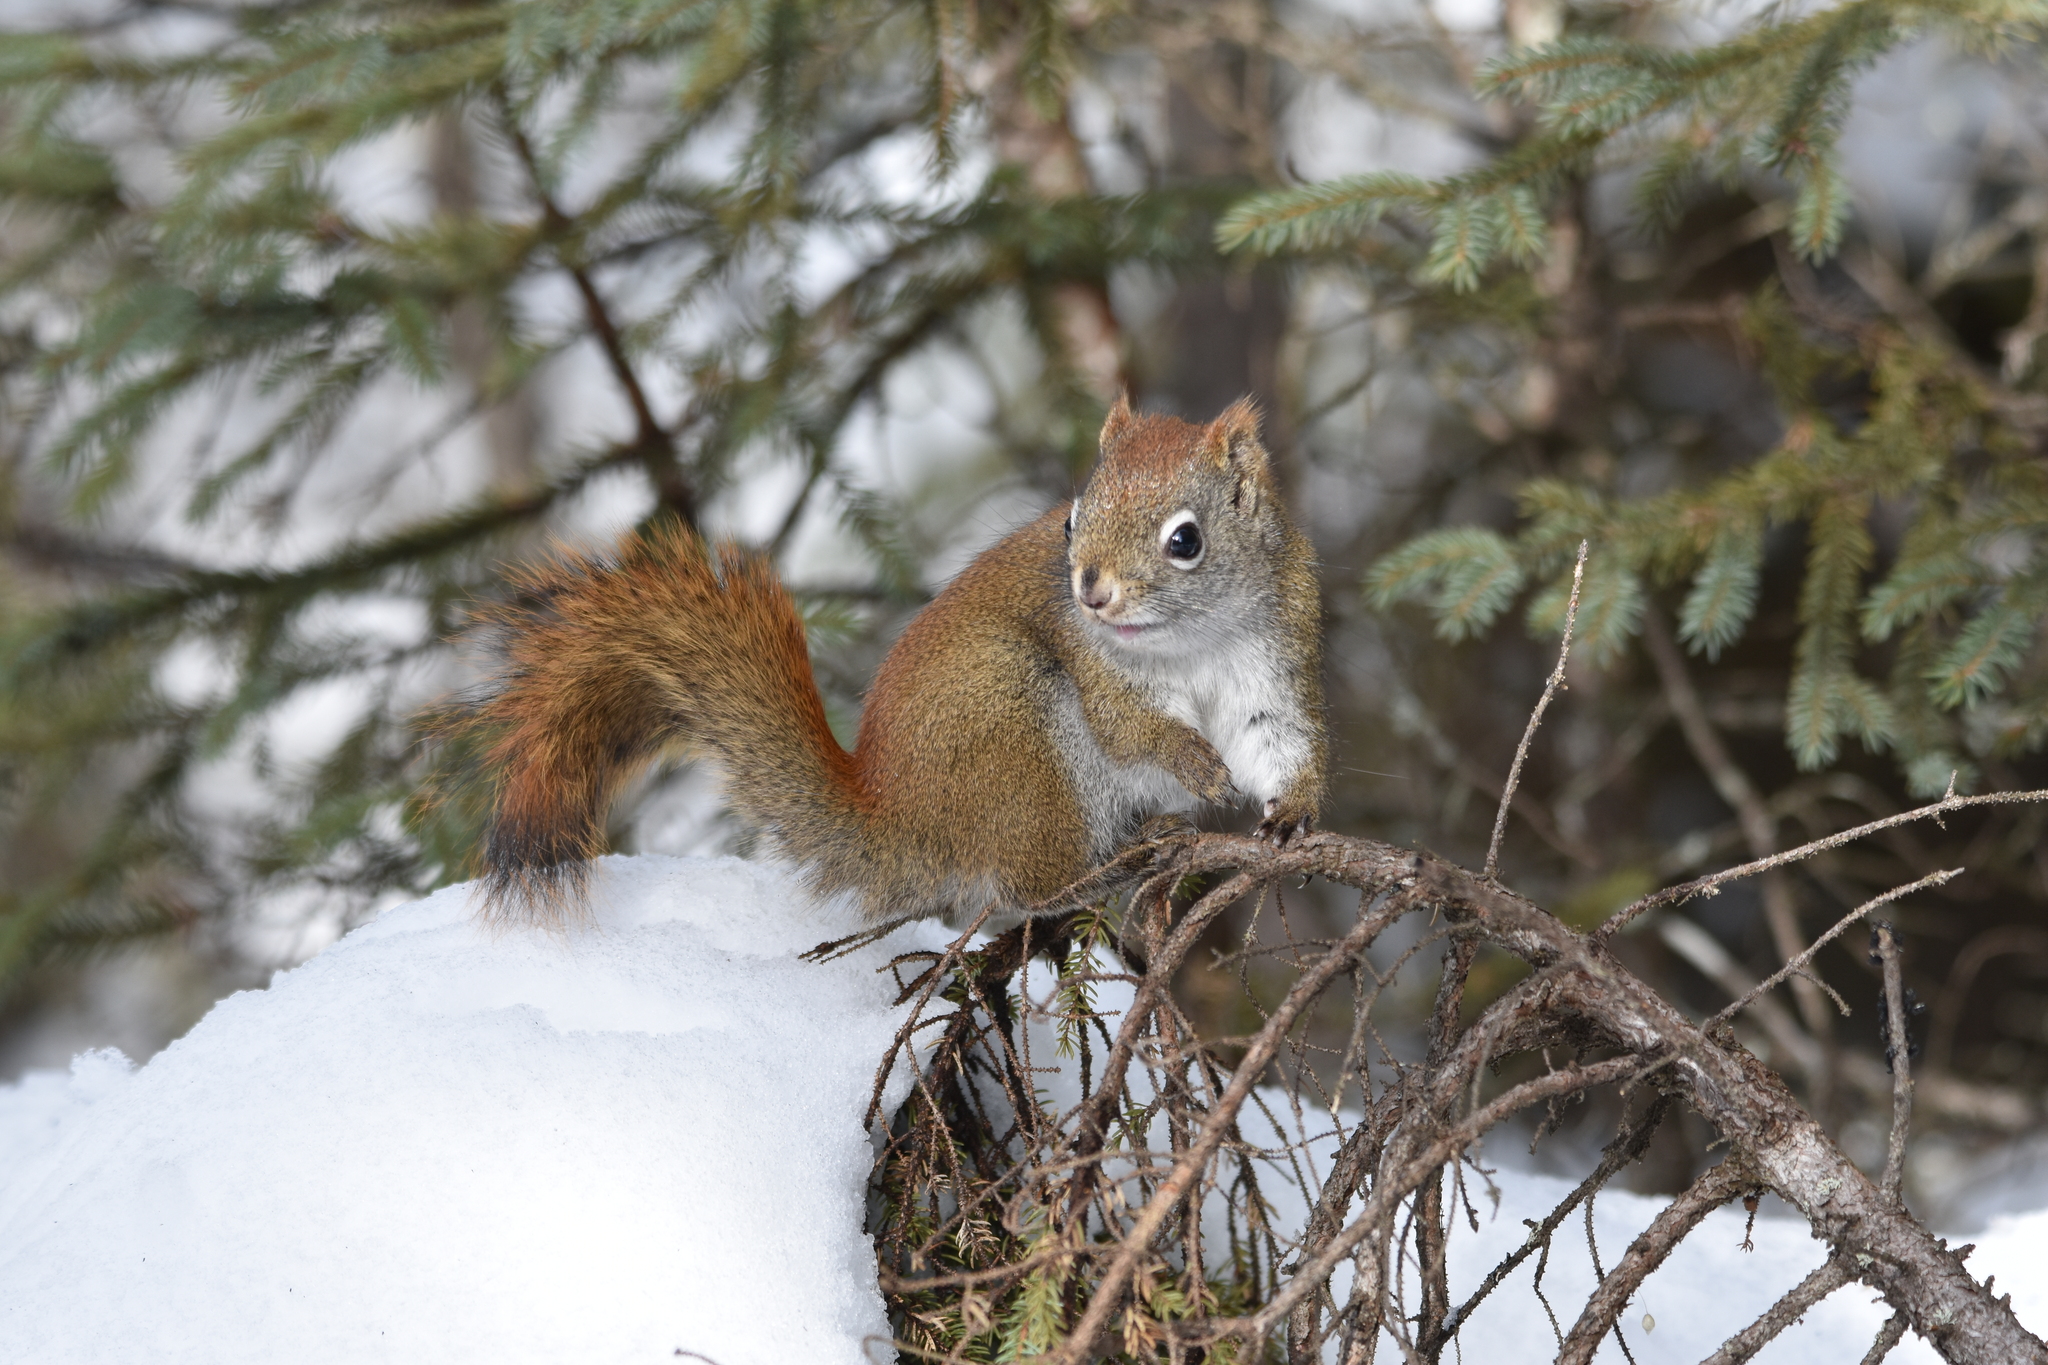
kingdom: Animalia
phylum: Chordata
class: Mammalia
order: Rodentia
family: Sciuridae
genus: Tamiasciurus
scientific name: Tamiasciurus hudsonicus
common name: Red squirrel
